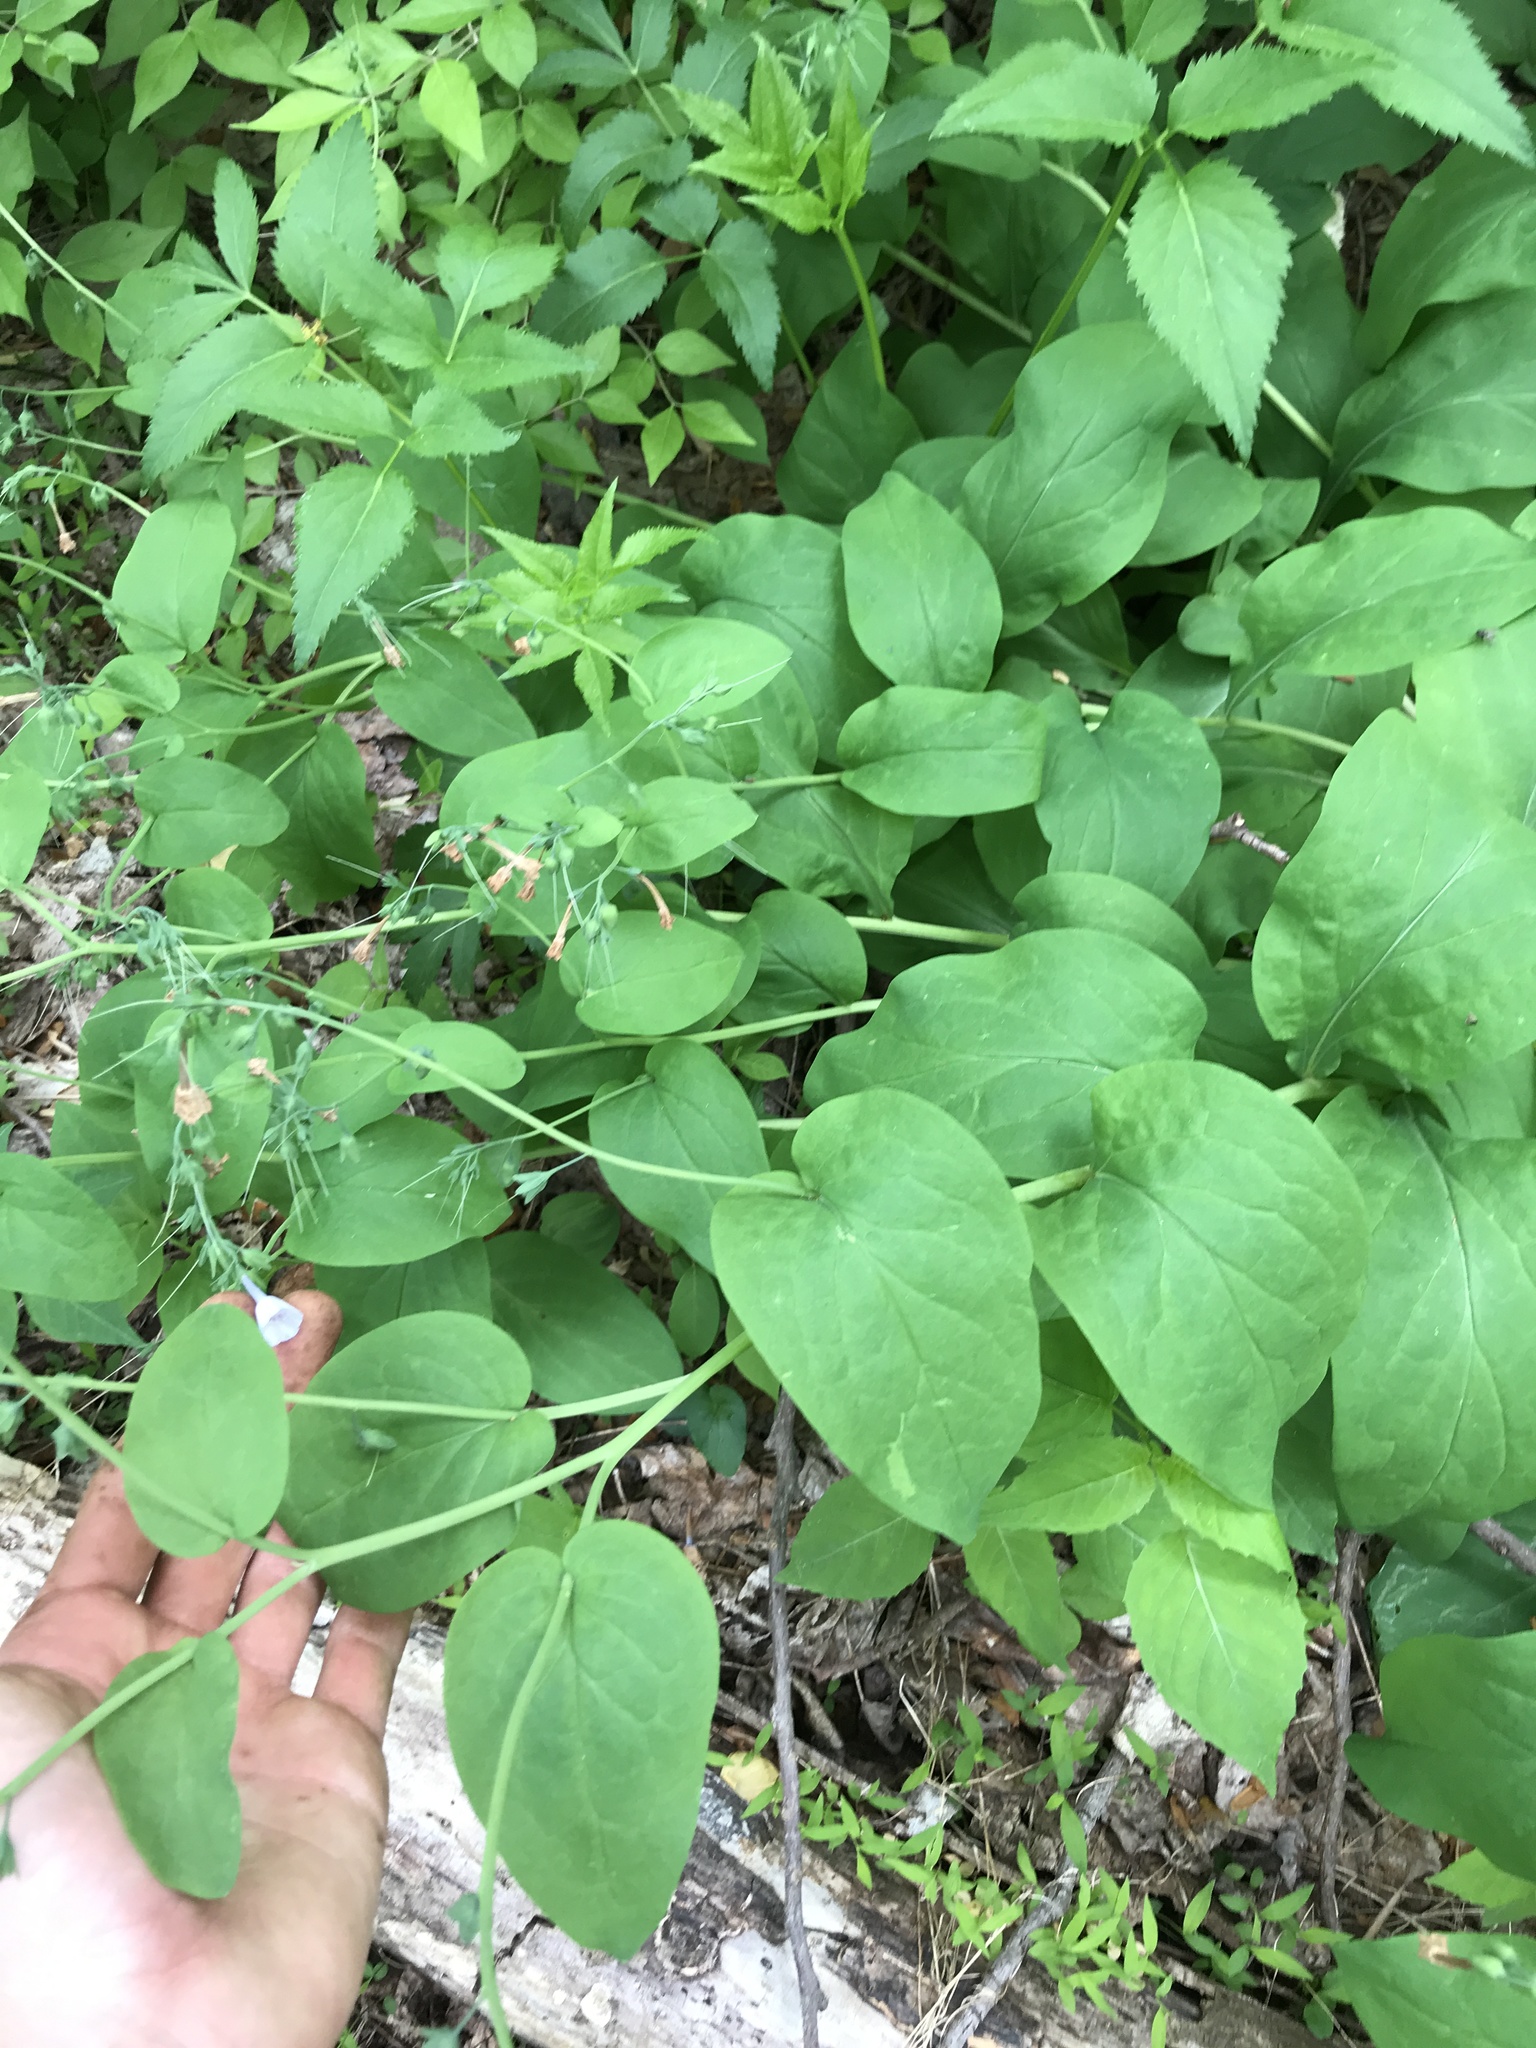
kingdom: Plantae
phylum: Tracheophyta
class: Magnoliopsida
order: Boraginales
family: Boraginaceae
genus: Mertensia
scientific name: Mertensia virginica
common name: Virginia bluebells
